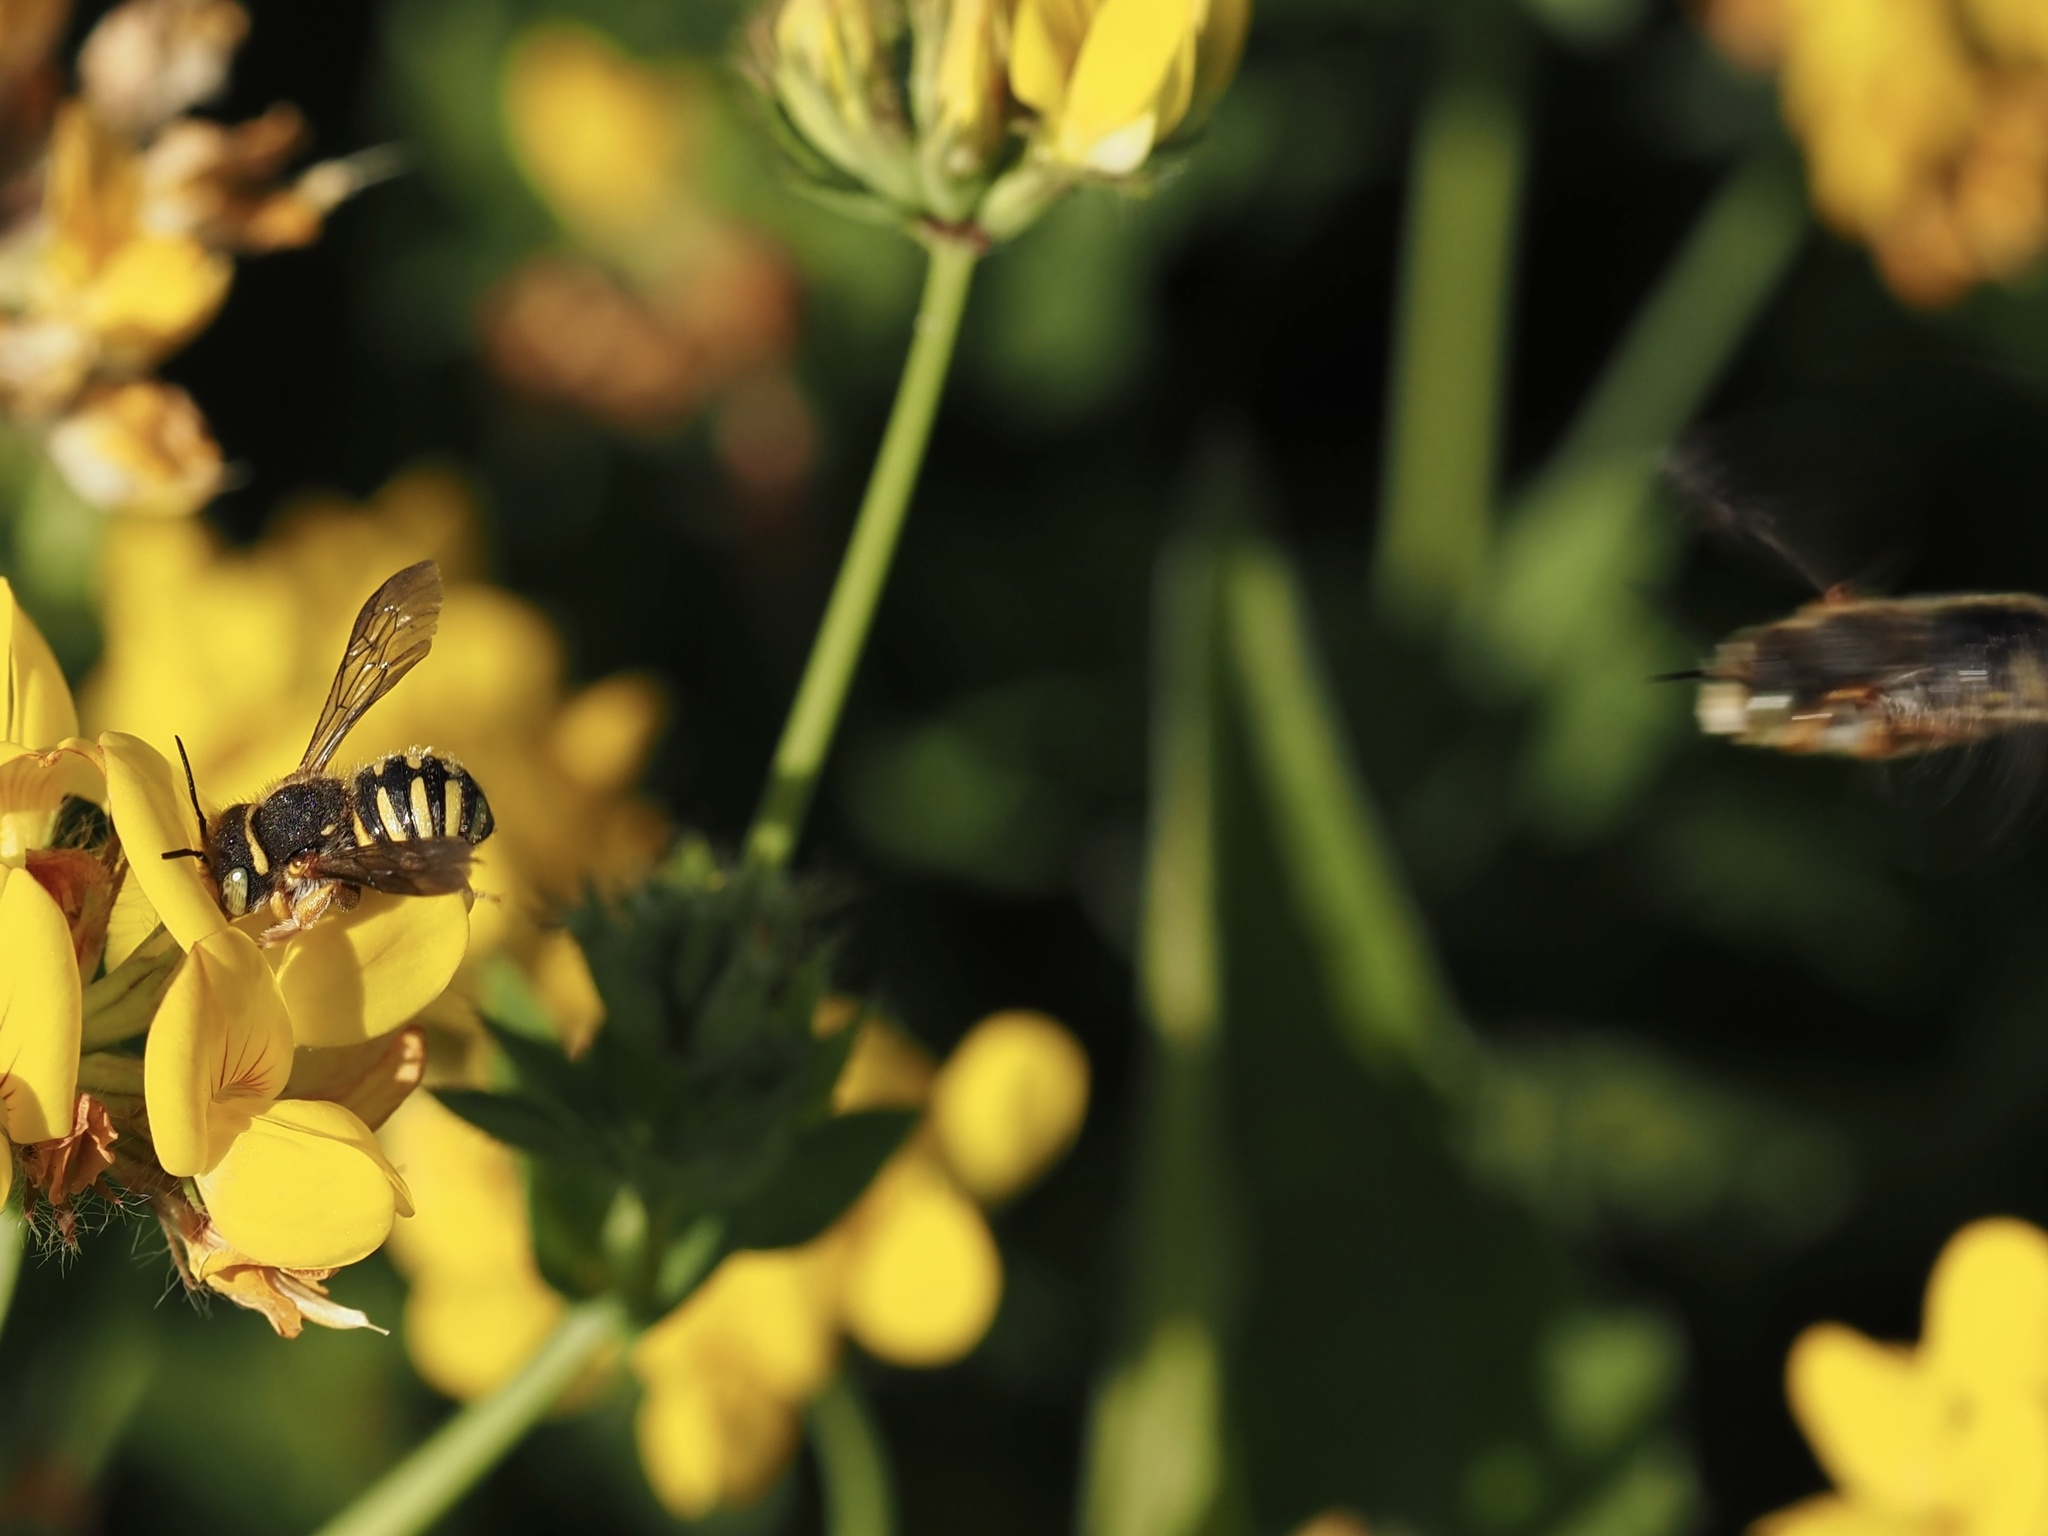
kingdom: Animalia
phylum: Arthropoda
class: Insecta
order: Hymenoptera
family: Megachilidae
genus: Anthidium
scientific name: Anthidium oblongatum
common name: Oblong wool carder bee
